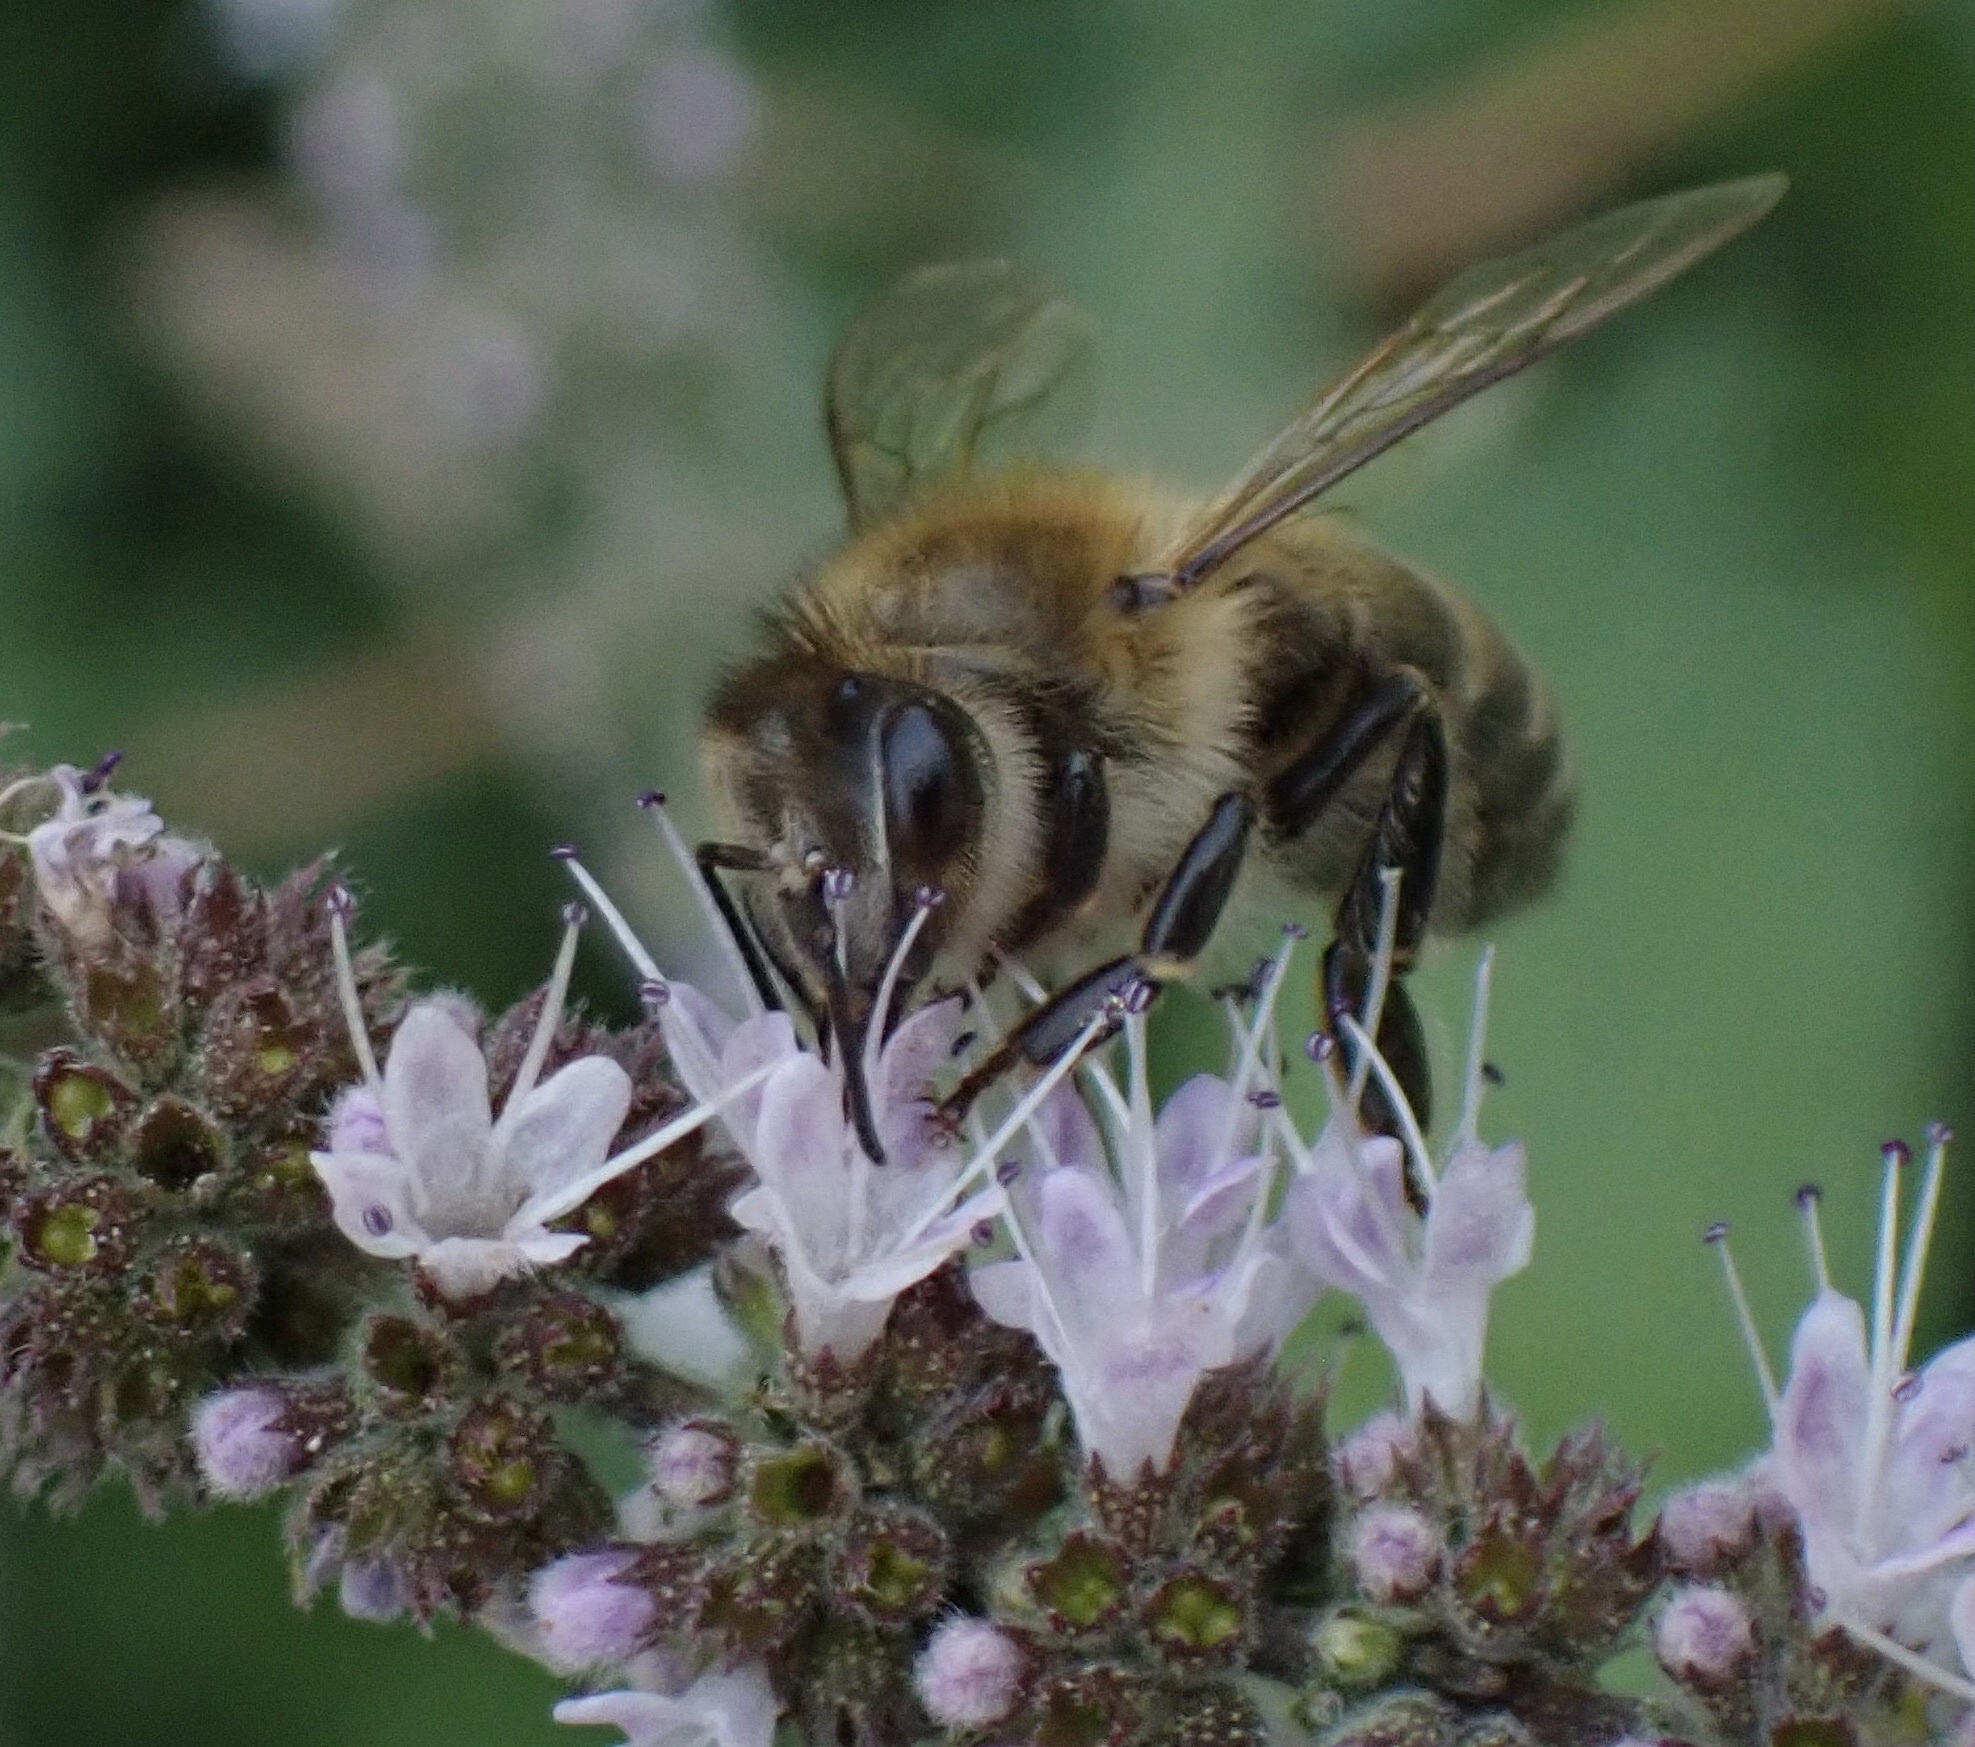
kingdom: Animalia
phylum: Arthropoda
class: Insecta
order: Hymenoptera
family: Apidae
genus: Apis
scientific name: Apis mellifera
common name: Honey bee
